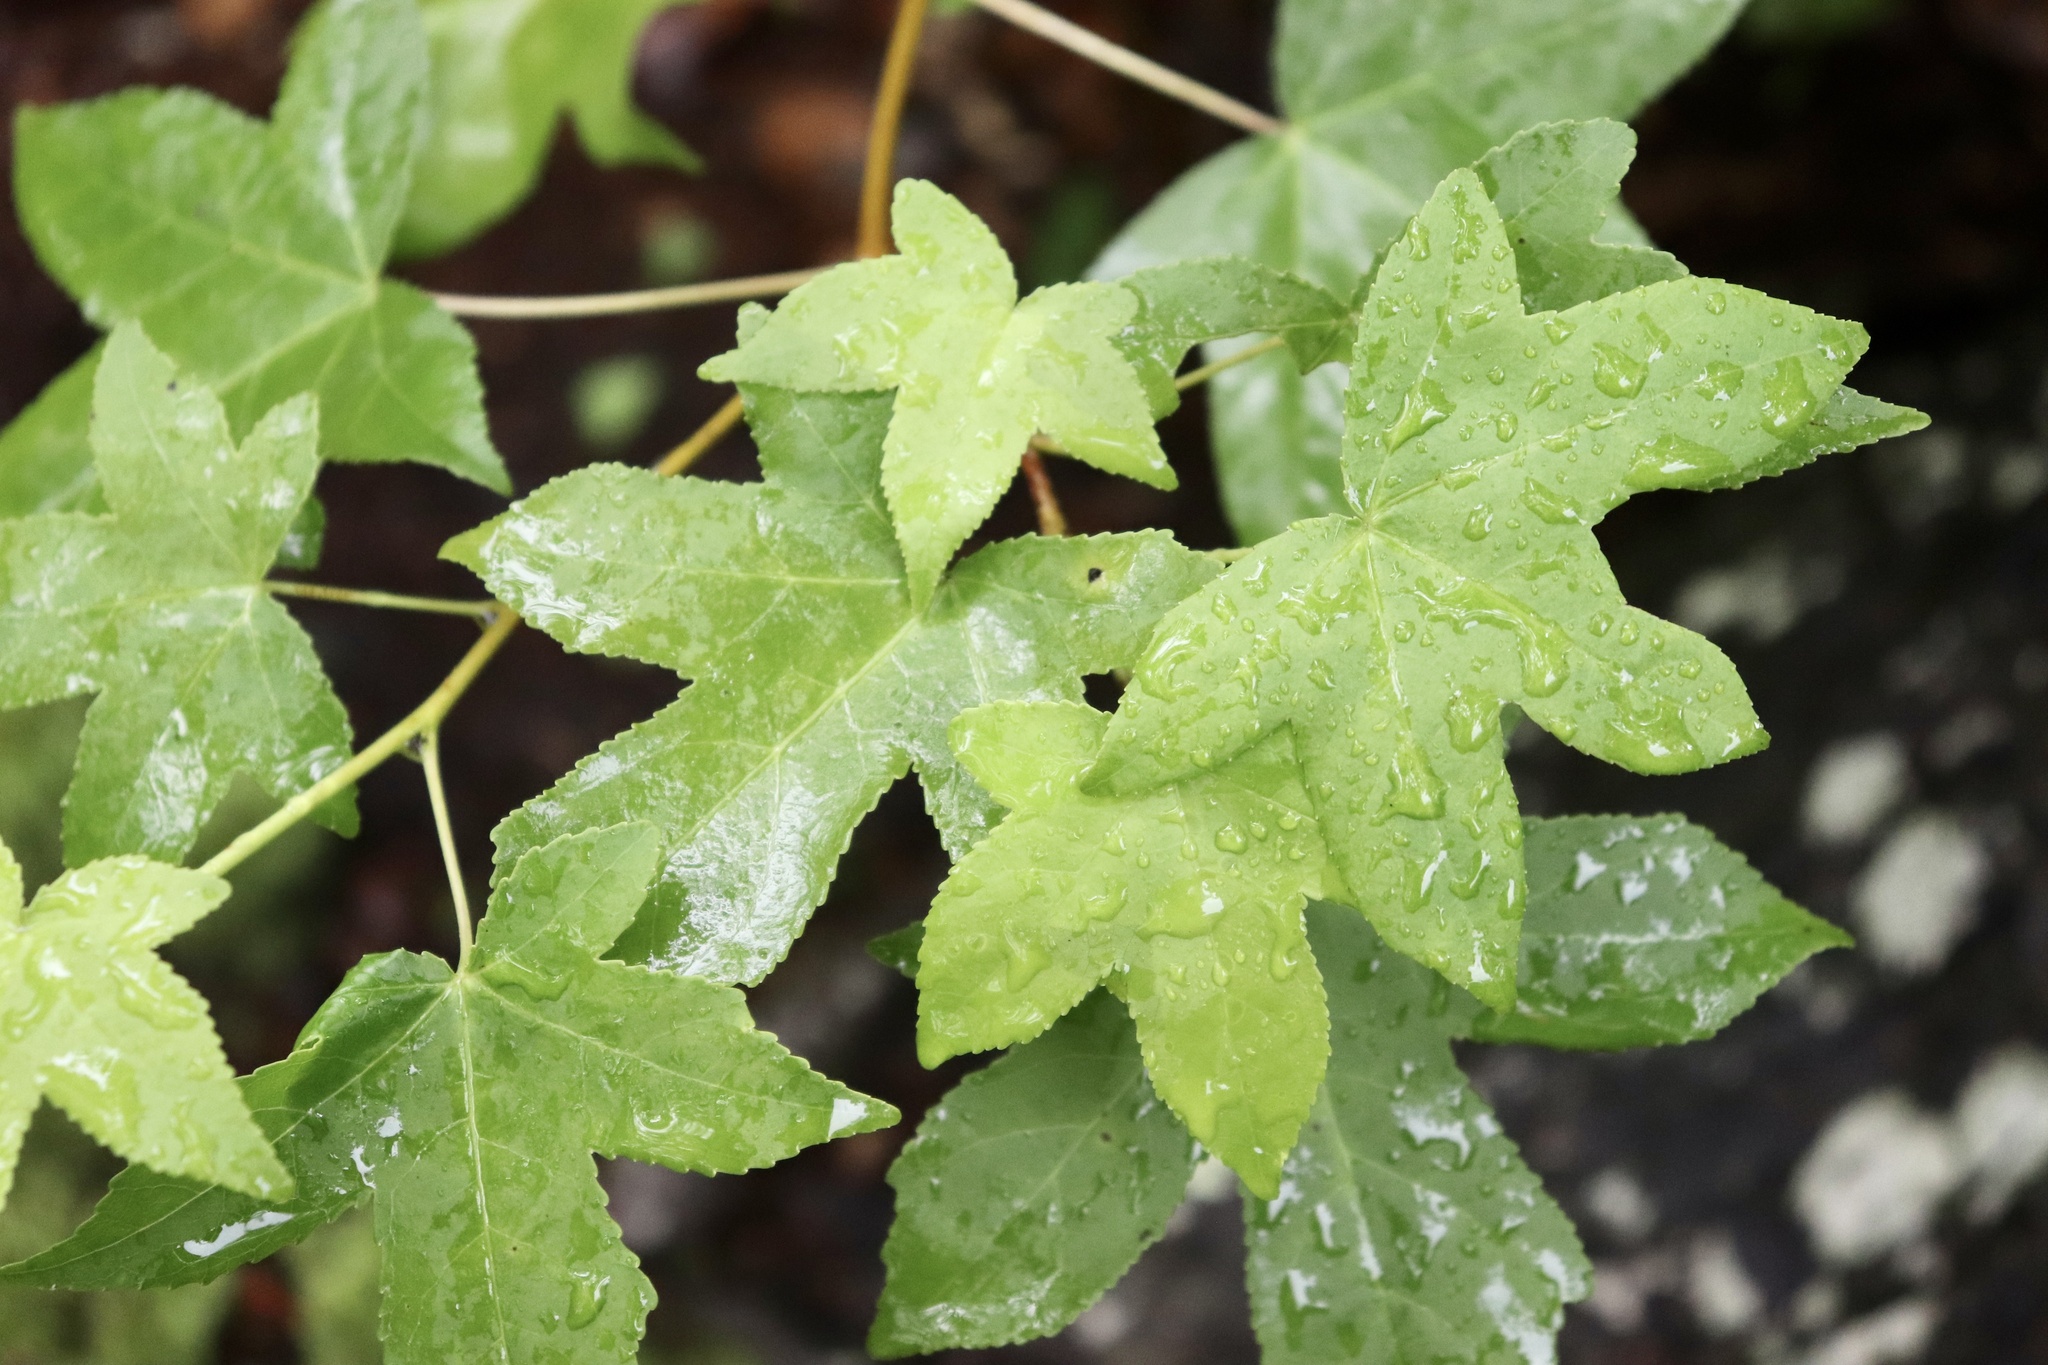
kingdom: Plantae
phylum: Tracheophyta
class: Magnoliopsida
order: Saxifragales
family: Altingiaceae
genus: Liquidambar
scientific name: Liquidambar styraciflua
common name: Sweet gum
